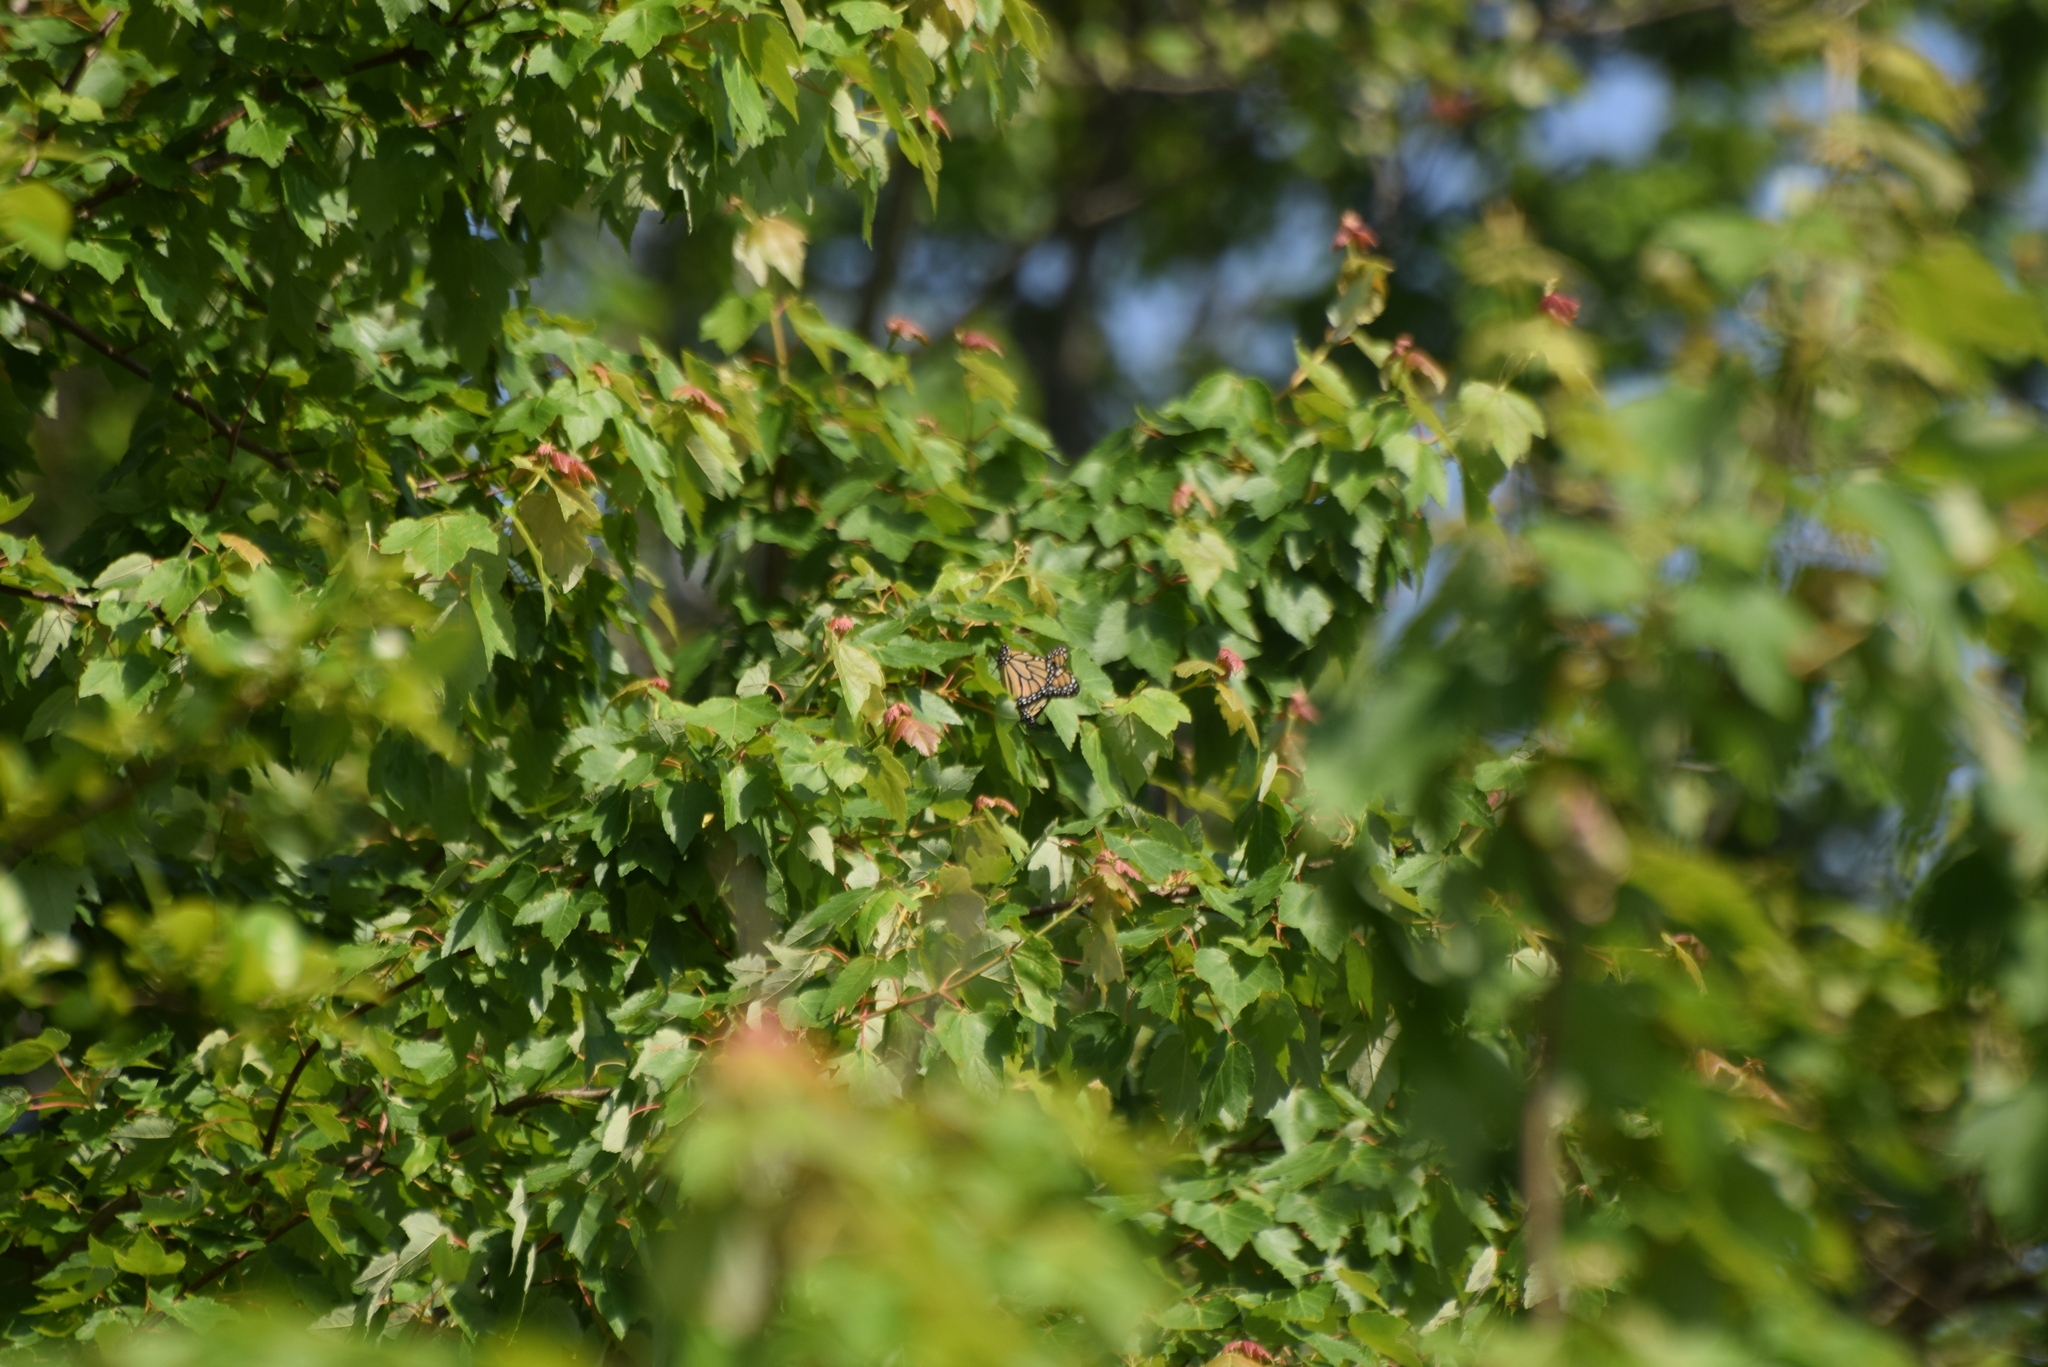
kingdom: Animalia
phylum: Arthropoda
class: Insecta
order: Lepidoptera
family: Nymphalidae
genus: Danaus
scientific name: Danaus plexippus
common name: Monarch
